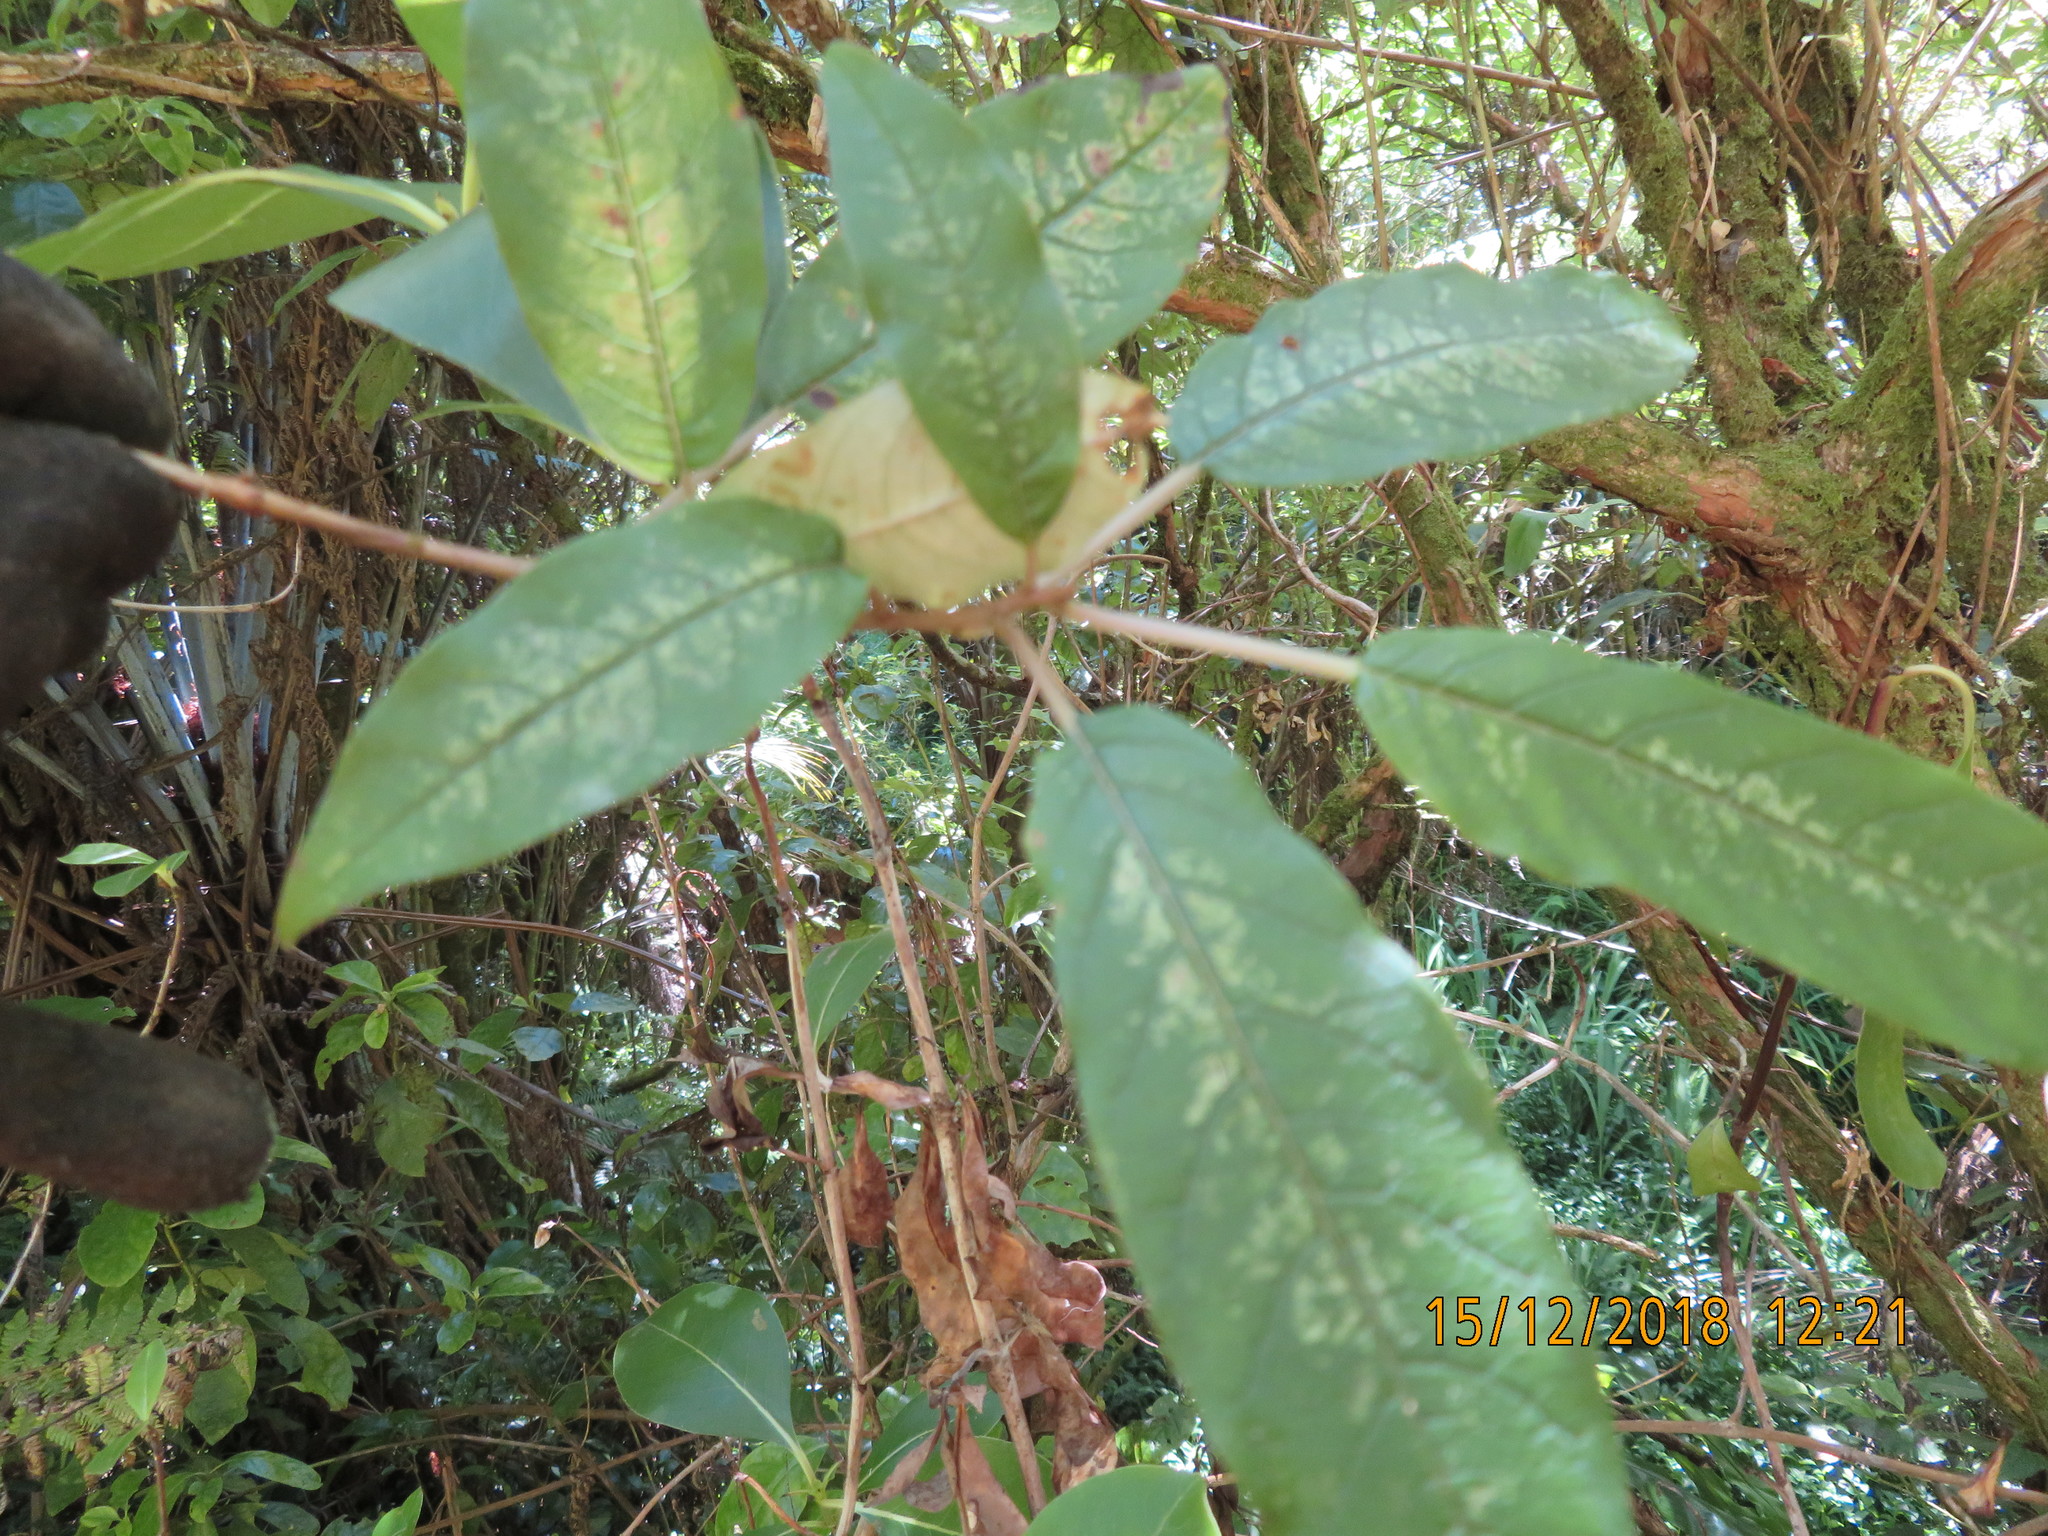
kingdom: Plantae
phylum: Tracheophyta
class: Magnoliopsida
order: Myrtales
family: Onagraceae
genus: Fuchsia
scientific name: Fuchsia excorticata
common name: Tree fuchsia
